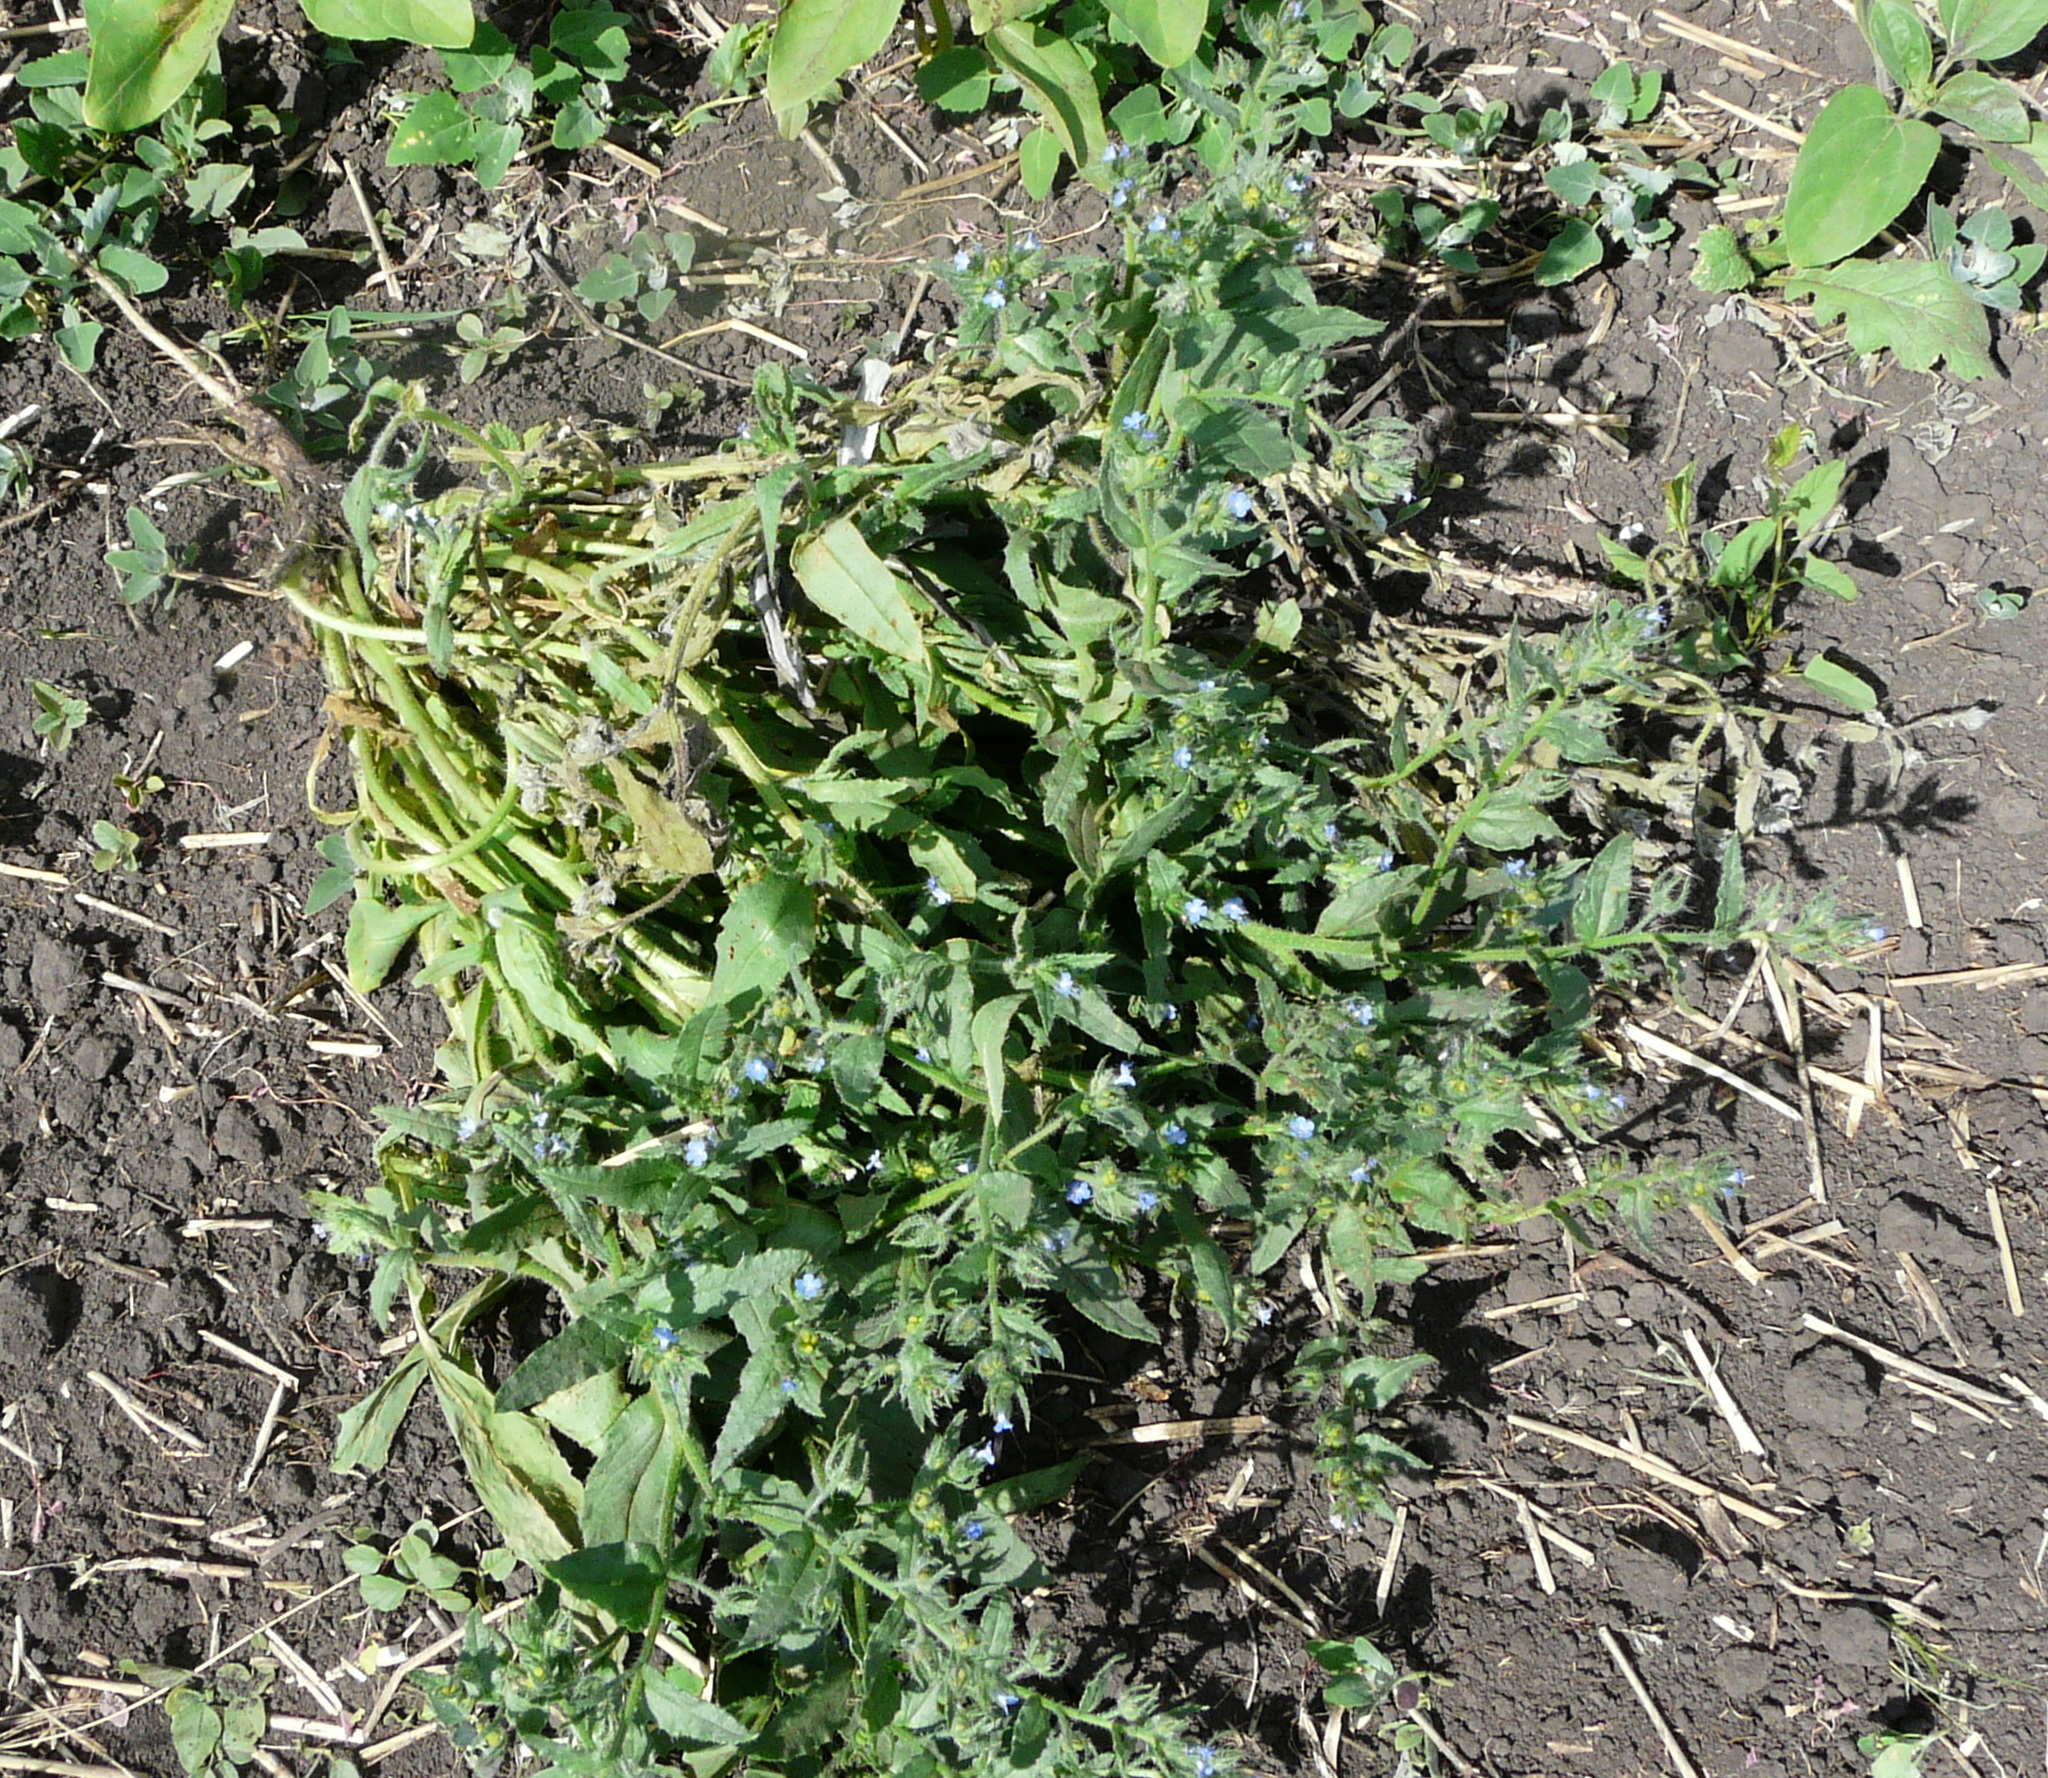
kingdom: Plantae
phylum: Tracheophyta
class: Magnoliopsida
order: Boraginales
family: Boraginaceae
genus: Lycopsis
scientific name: Lycopsis arvensis
